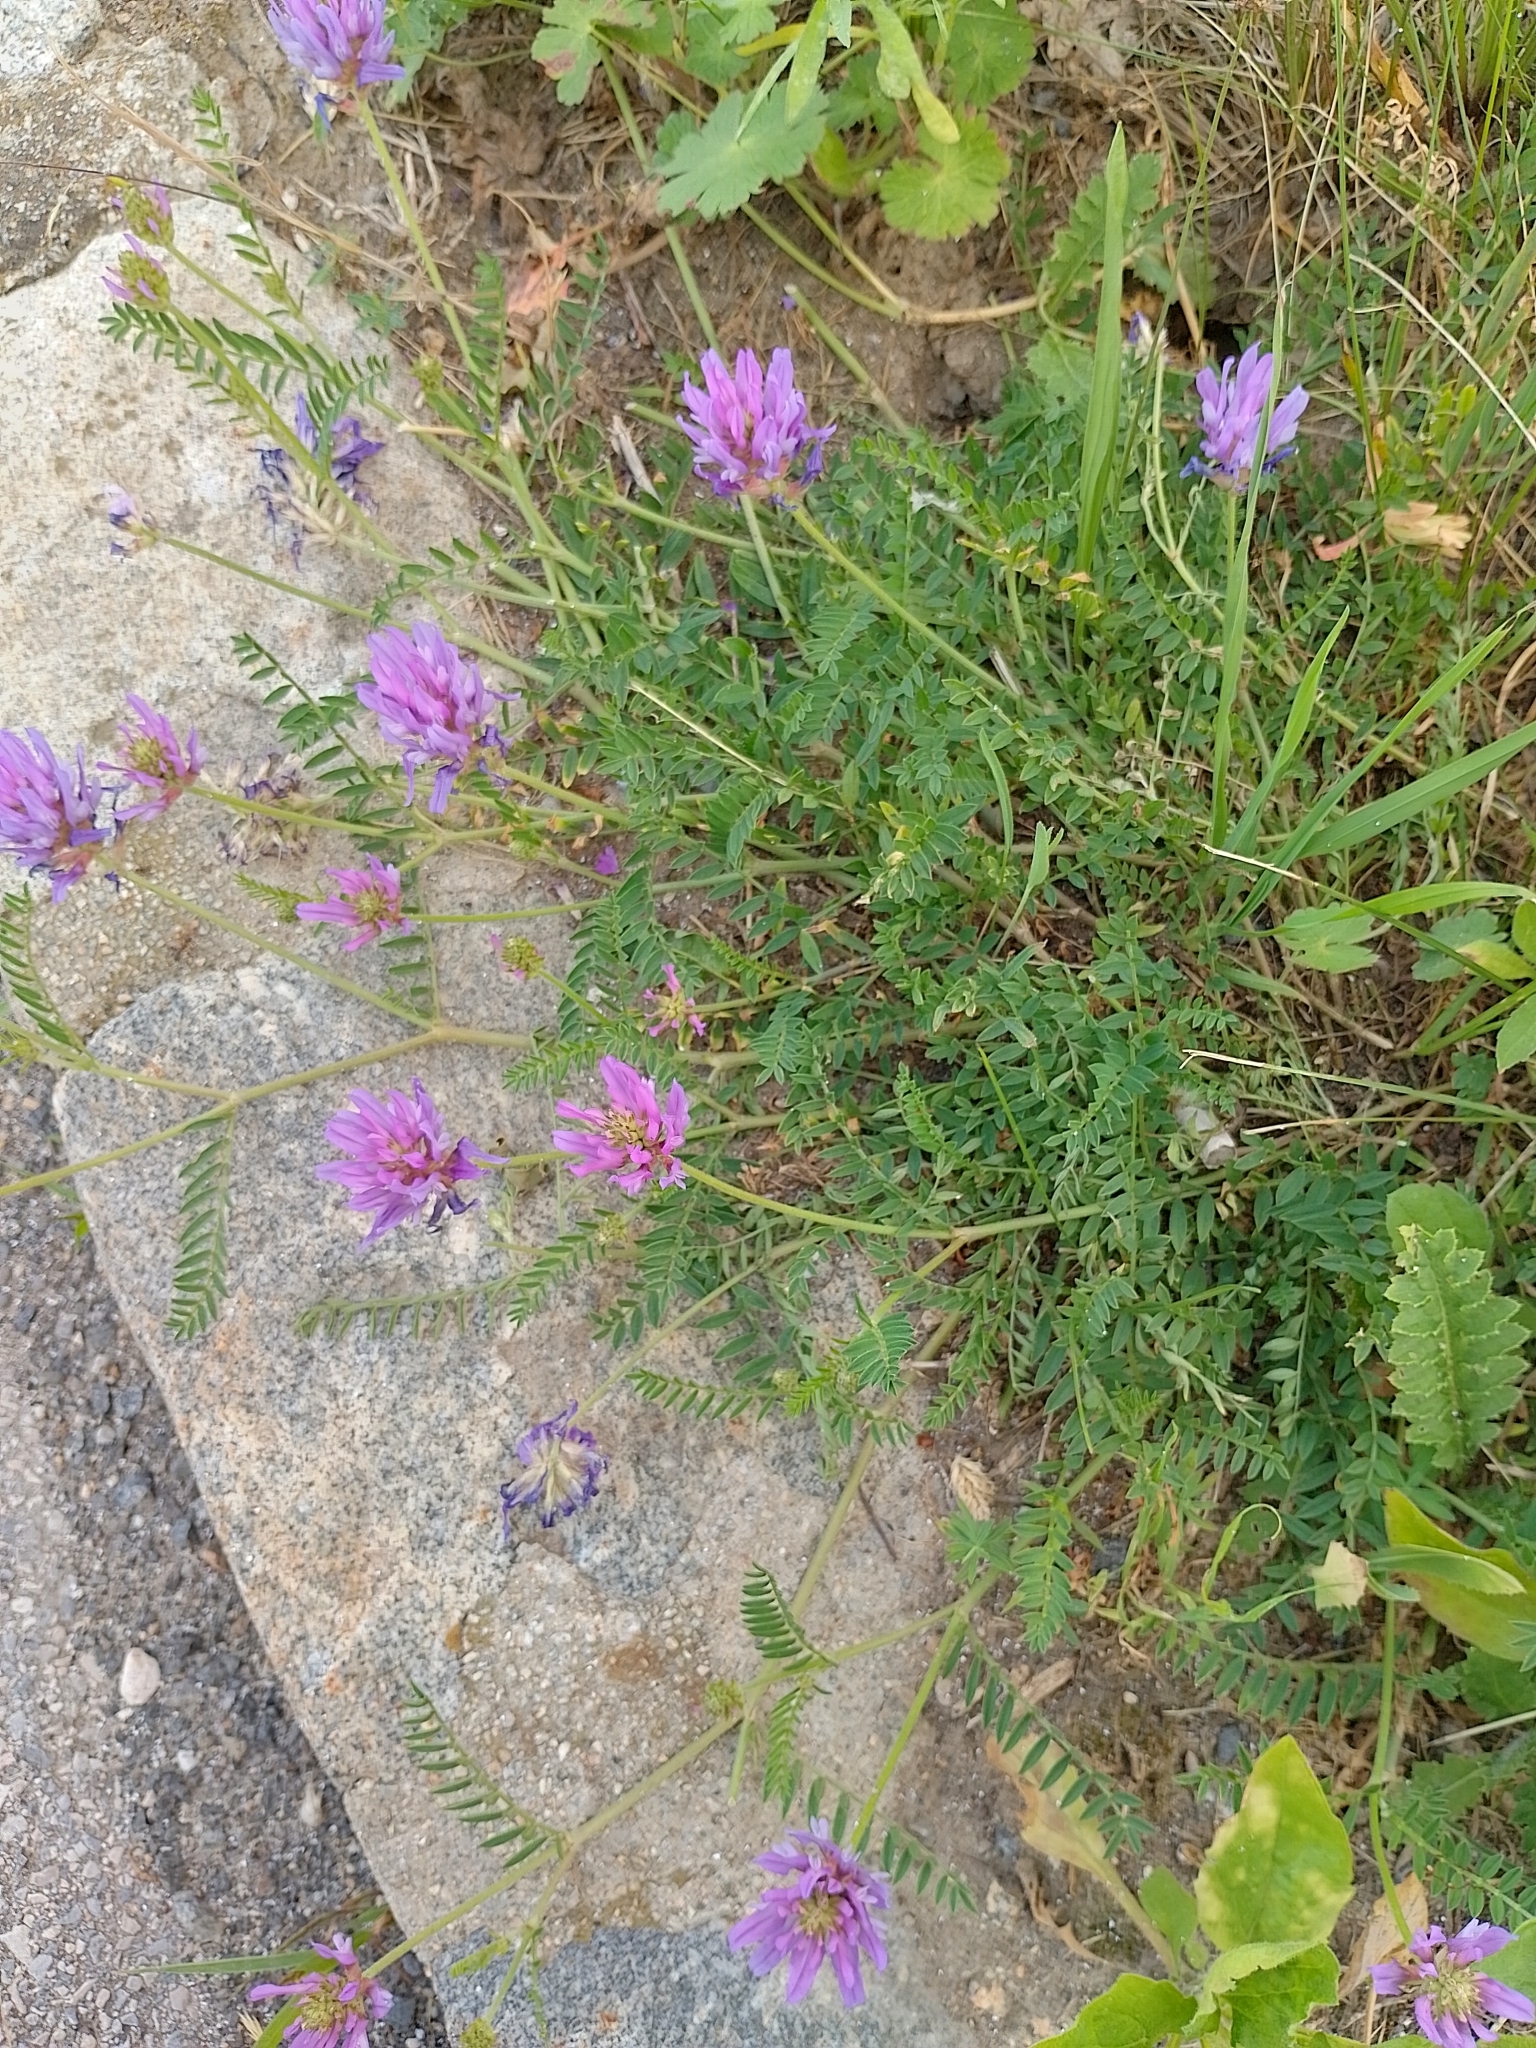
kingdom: Plantae
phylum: Tracheophyta
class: Magnoliopsida
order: Fabales
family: Fabaceae
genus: Astragalus
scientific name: Astragalus onobrychis
